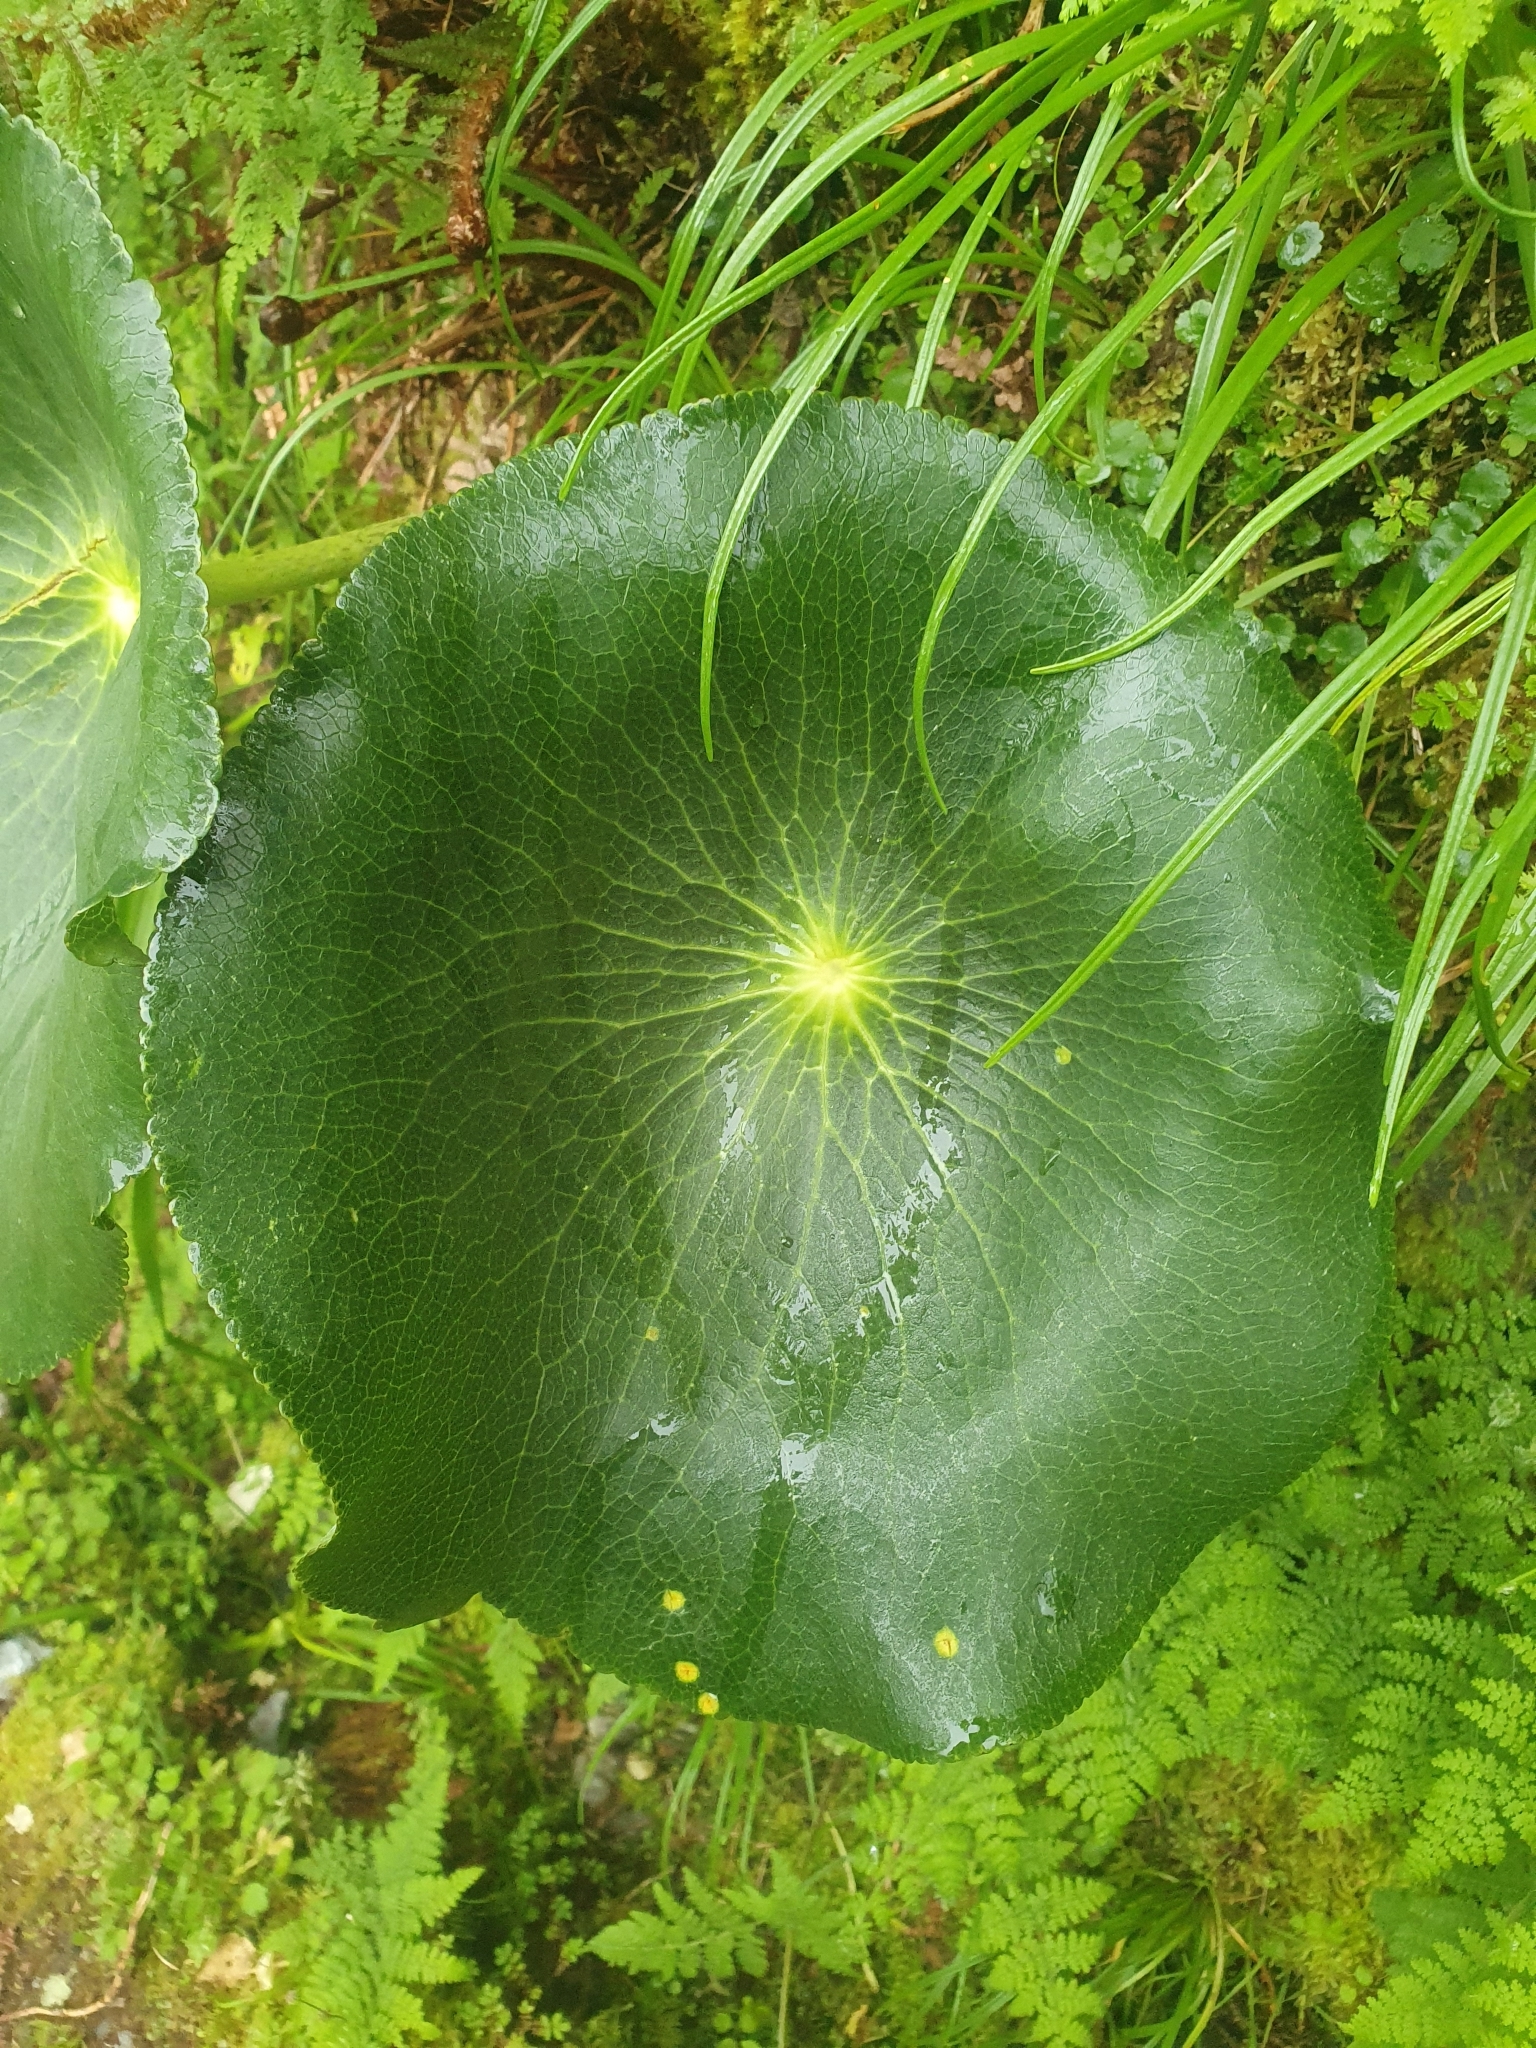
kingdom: Plantae
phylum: Tracheophyta
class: Magnoliopsida
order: Ranunculales
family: Ranunculaceae
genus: Ranunculus
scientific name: Ranunculus lyallii
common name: Mountain-lily
